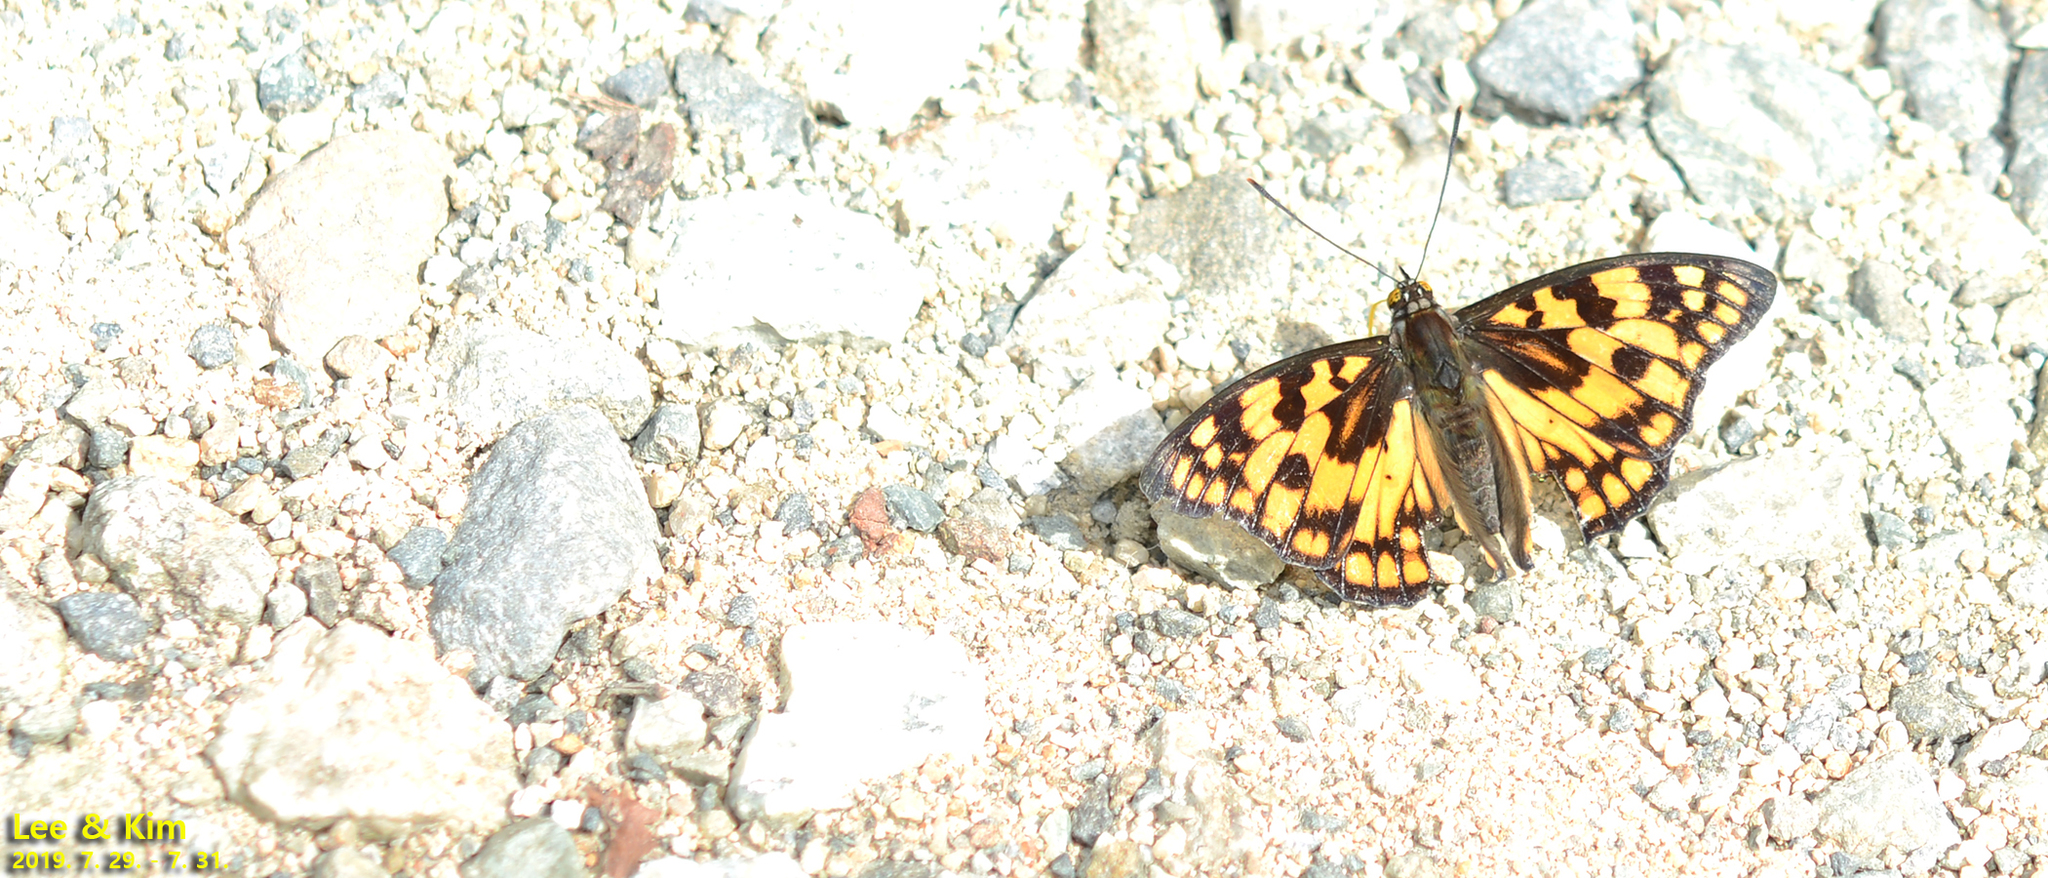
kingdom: Animalia
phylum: Arthropoda
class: Insecta
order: Lepidoptera
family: Nymphalidae
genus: Sephisa
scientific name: Sephisa dichroa
